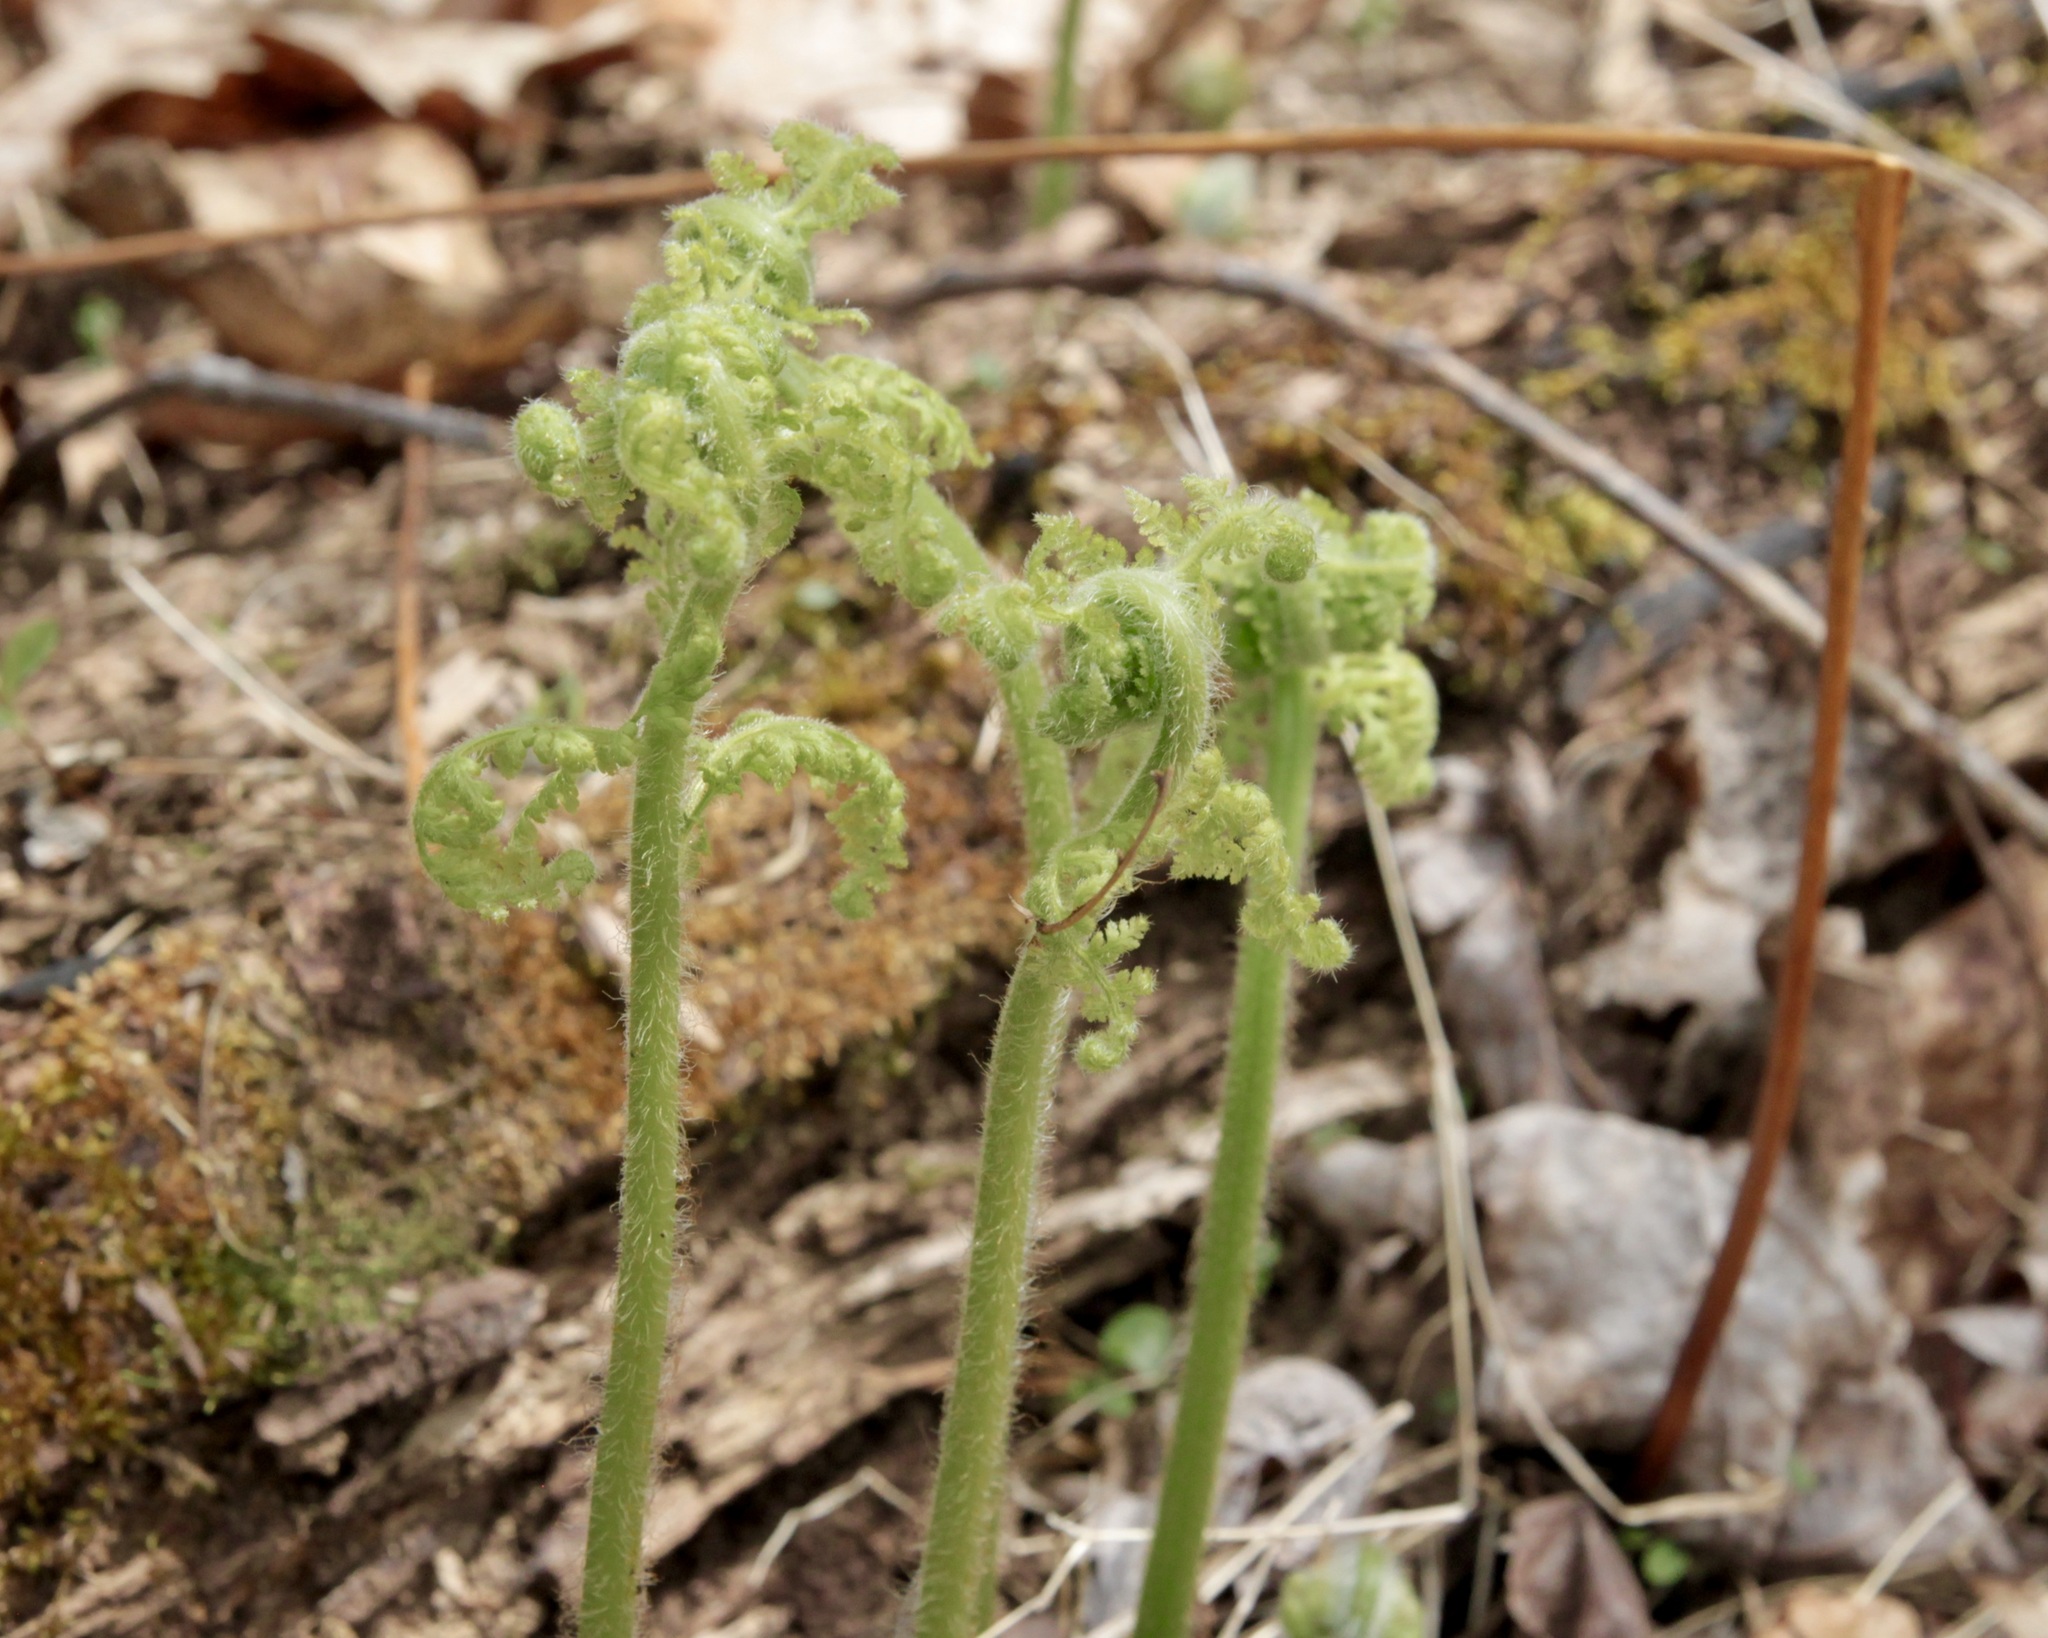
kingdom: Plantae
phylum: Tracheophyta
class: Polypodiopsida
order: Polypodiales
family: Dennstaedtiaceae
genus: Sitobolium
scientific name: Sitobolium punctilobum
